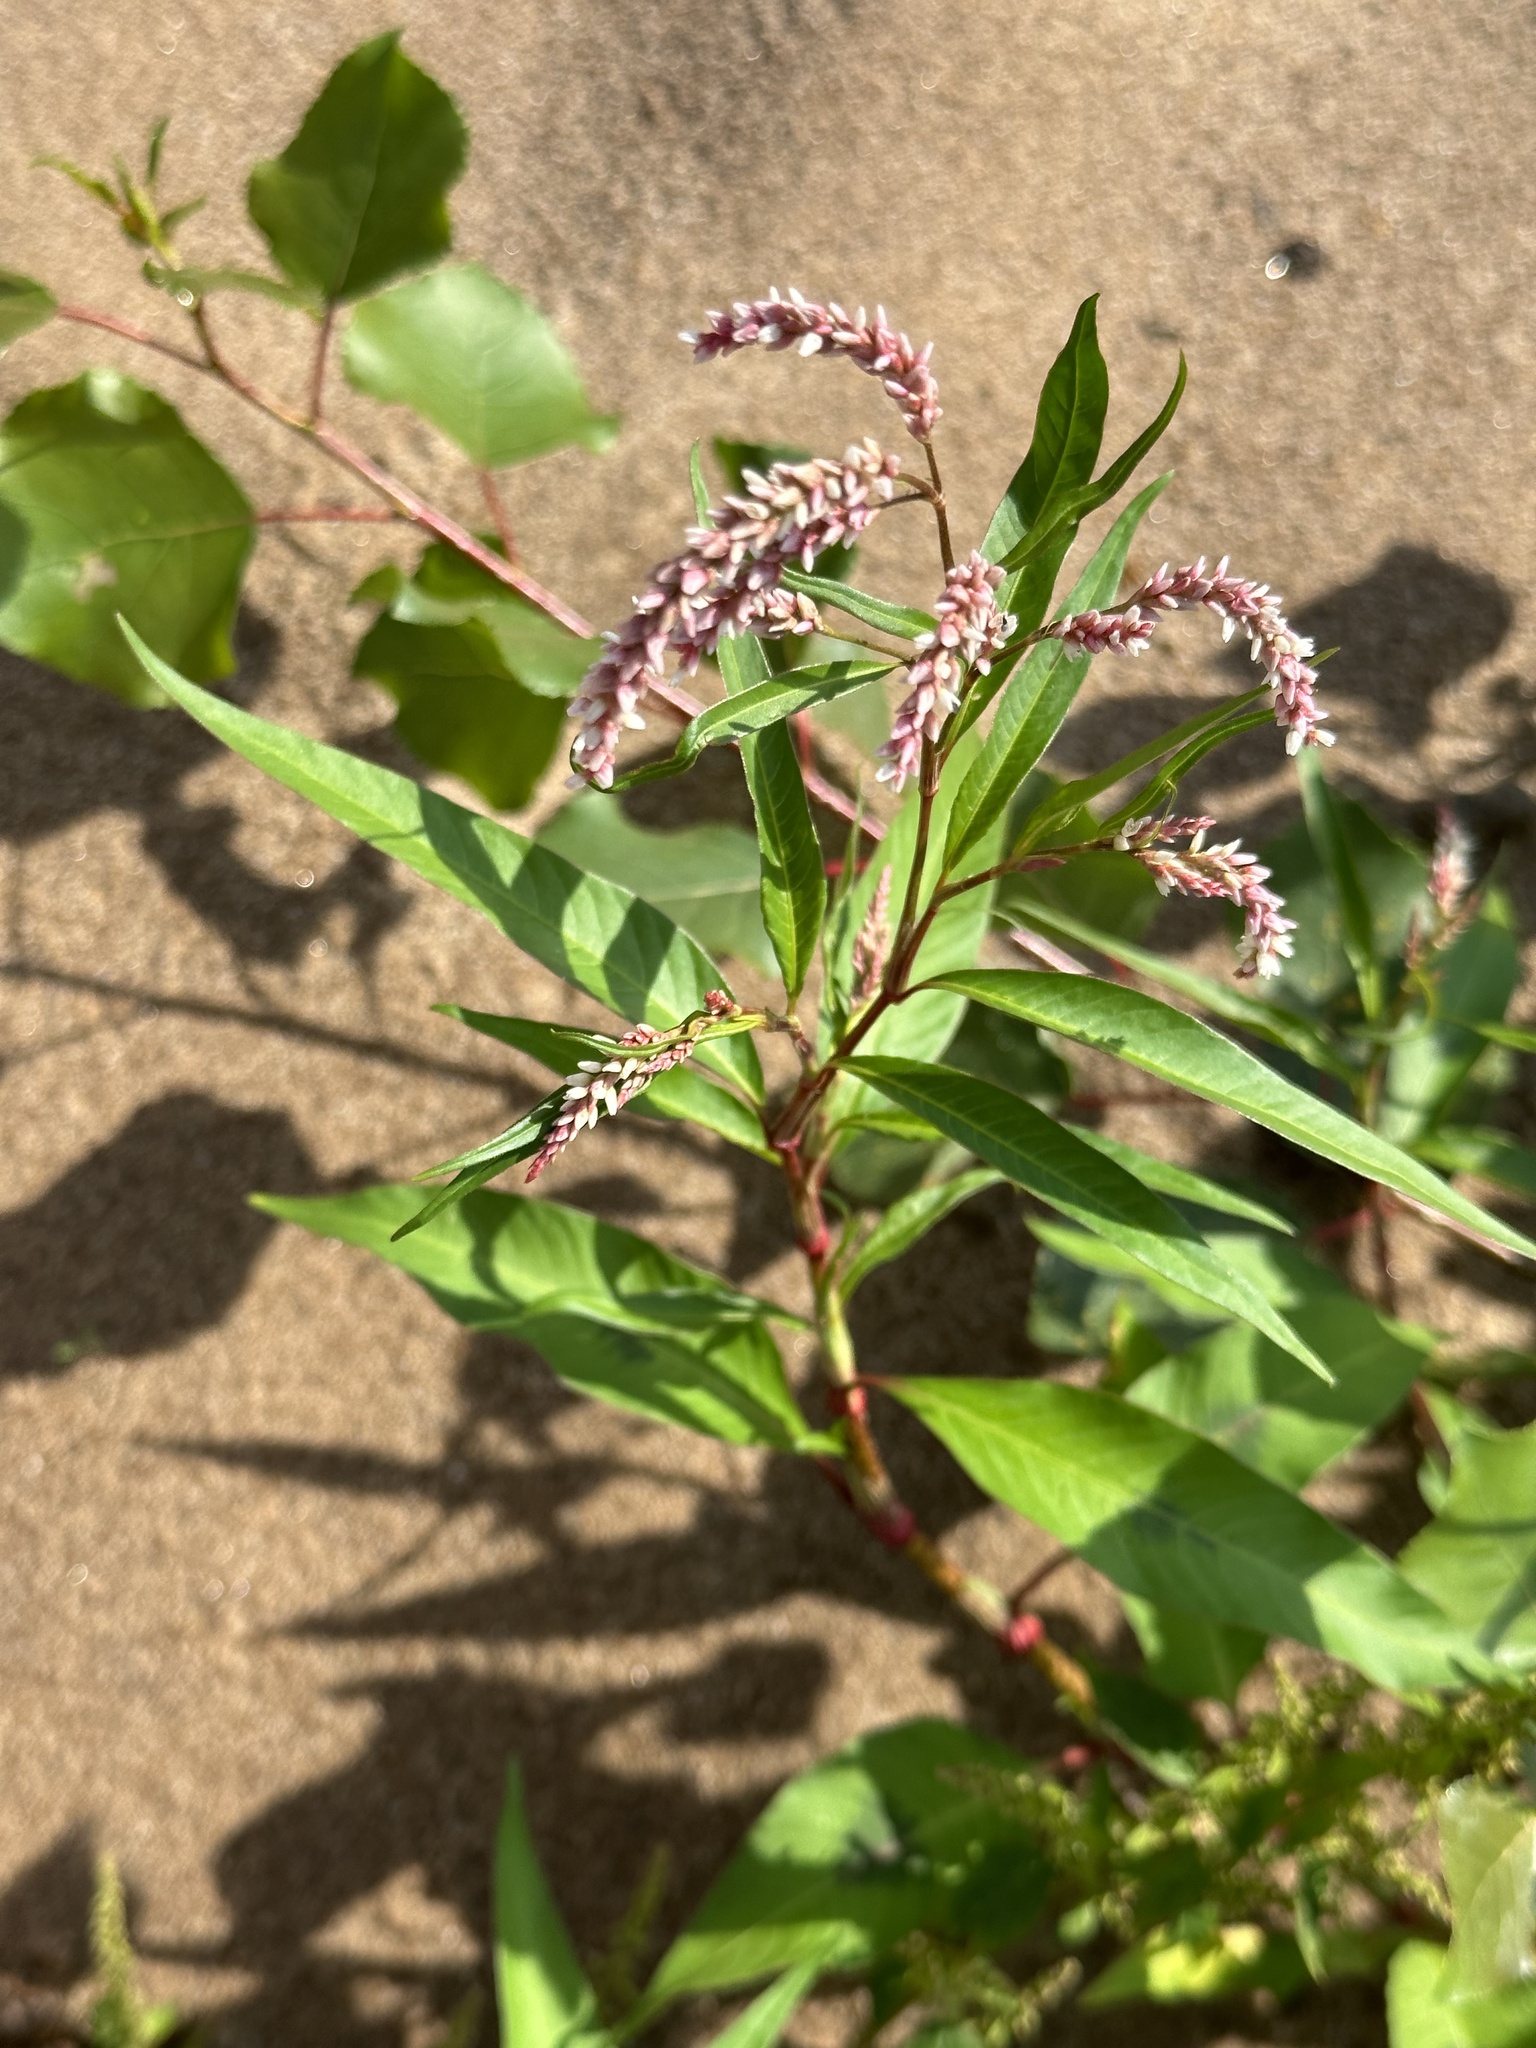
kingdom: Plantae
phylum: Tracheophyta
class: Magnoliopsida
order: Caryophyllales
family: Polygonaceae
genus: Persicaria
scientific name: Persicaria lapathifolia
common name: Curlytop knotweed
